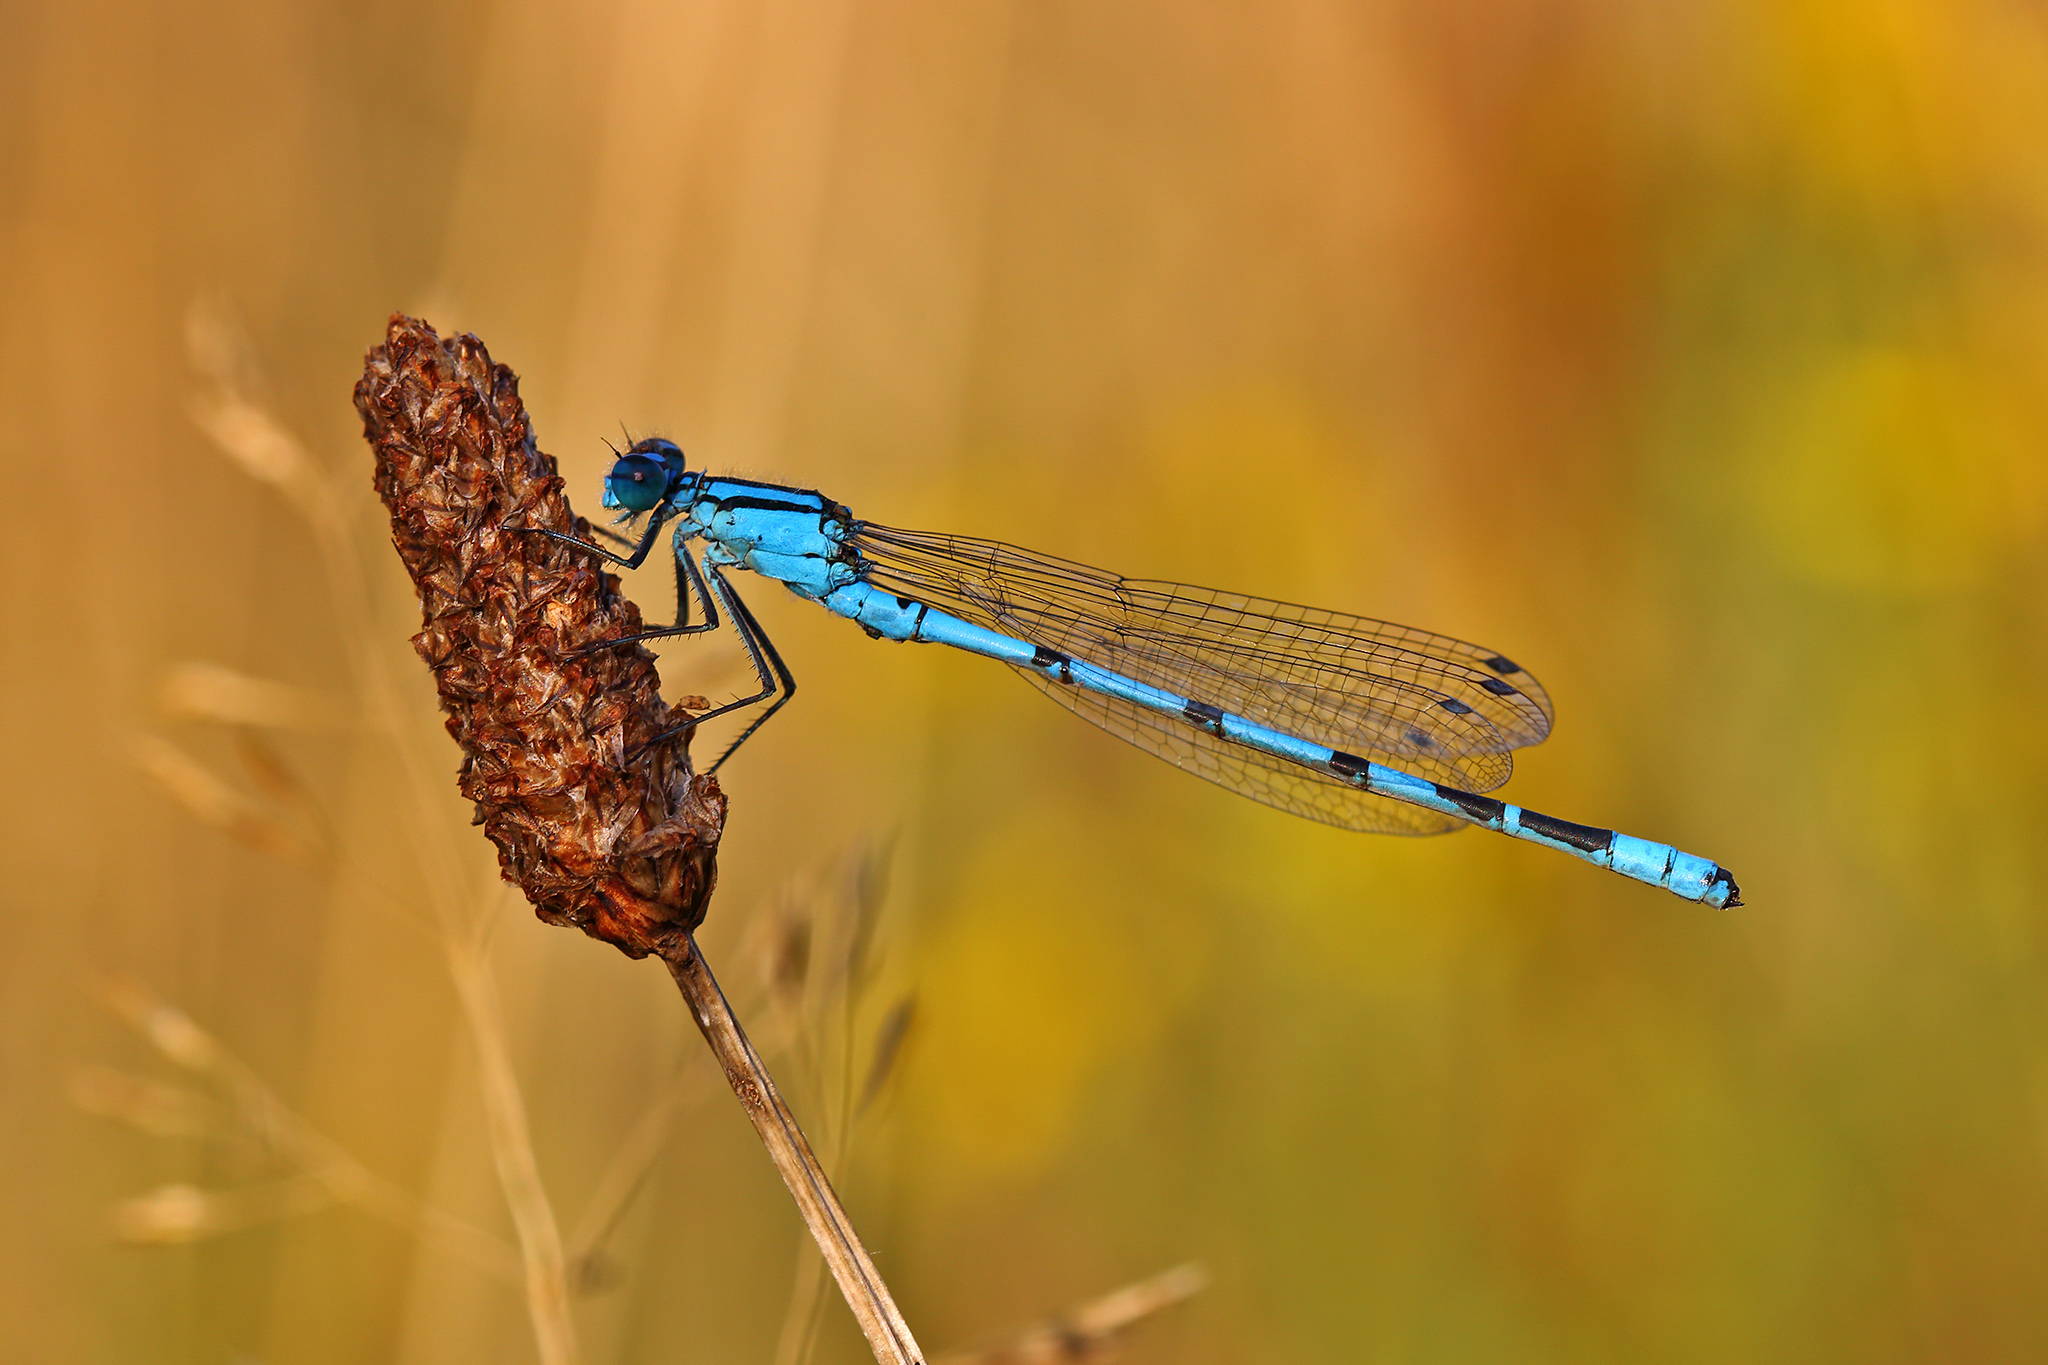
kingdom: Animalia
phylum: Arthropoda
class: Insecta
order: Odonata
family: Coenagrionidae
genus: Enallagma
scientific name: Enallagma cyathigerum
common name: Common blue damselfly
